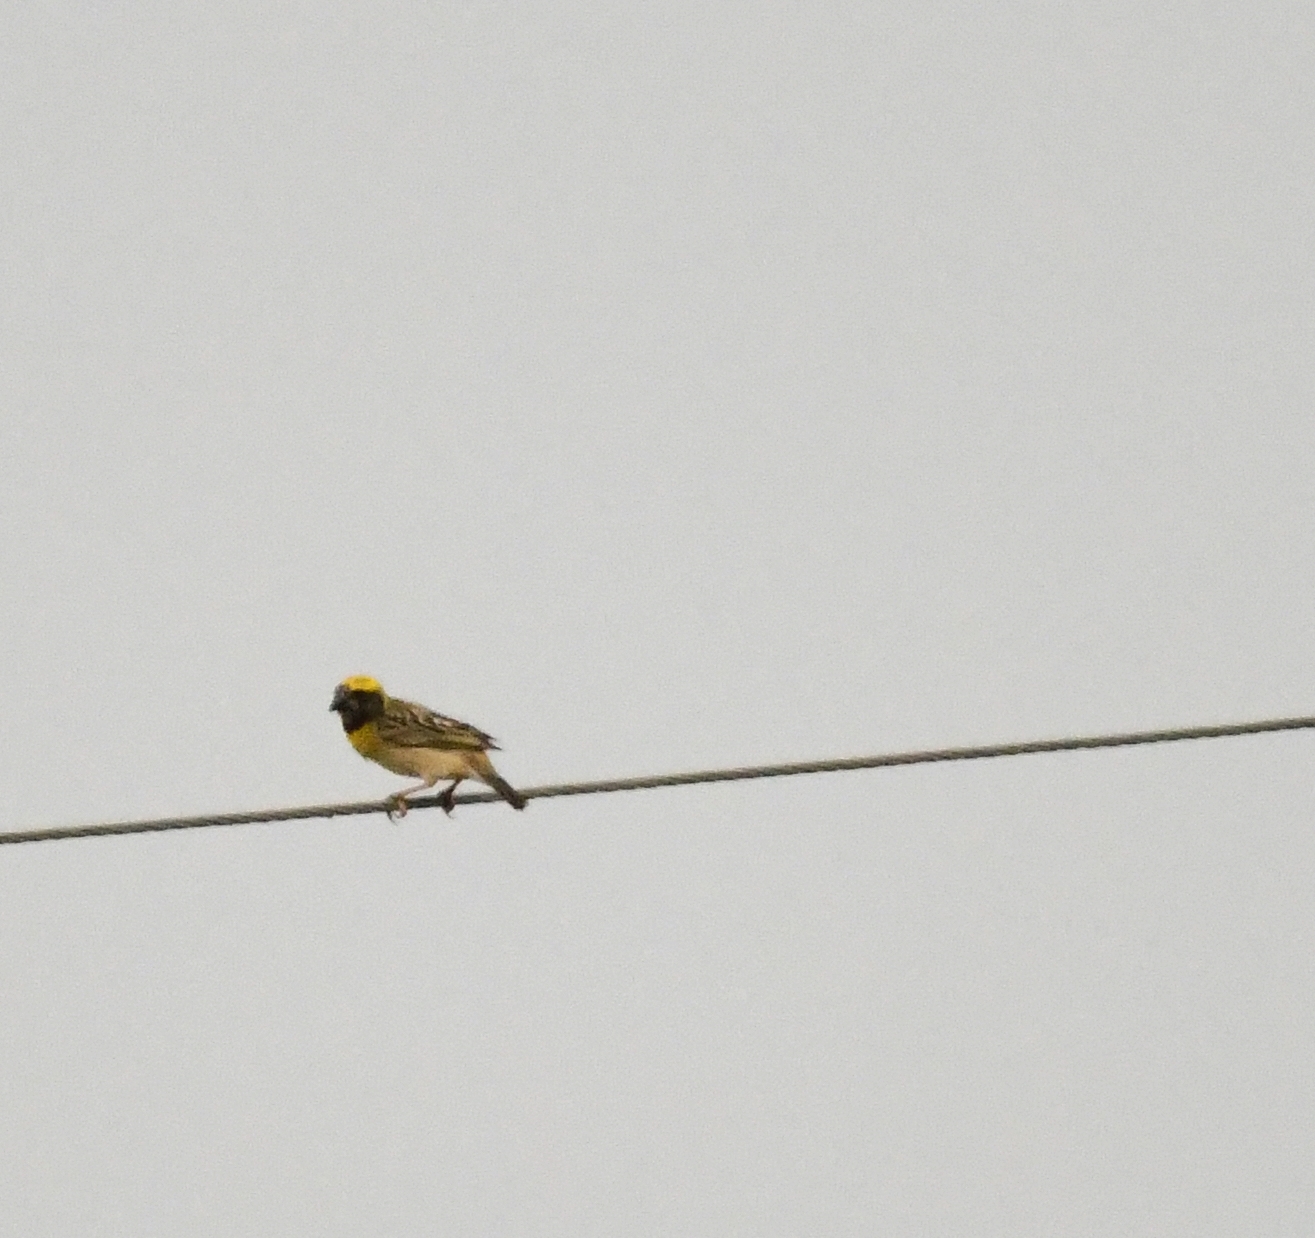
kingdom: Animalia
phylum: Chordata
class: Aves
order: Passeriformes
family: Ploceidae
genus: Ploceus
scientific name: Ploceus philippinus
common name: Baya weaver
